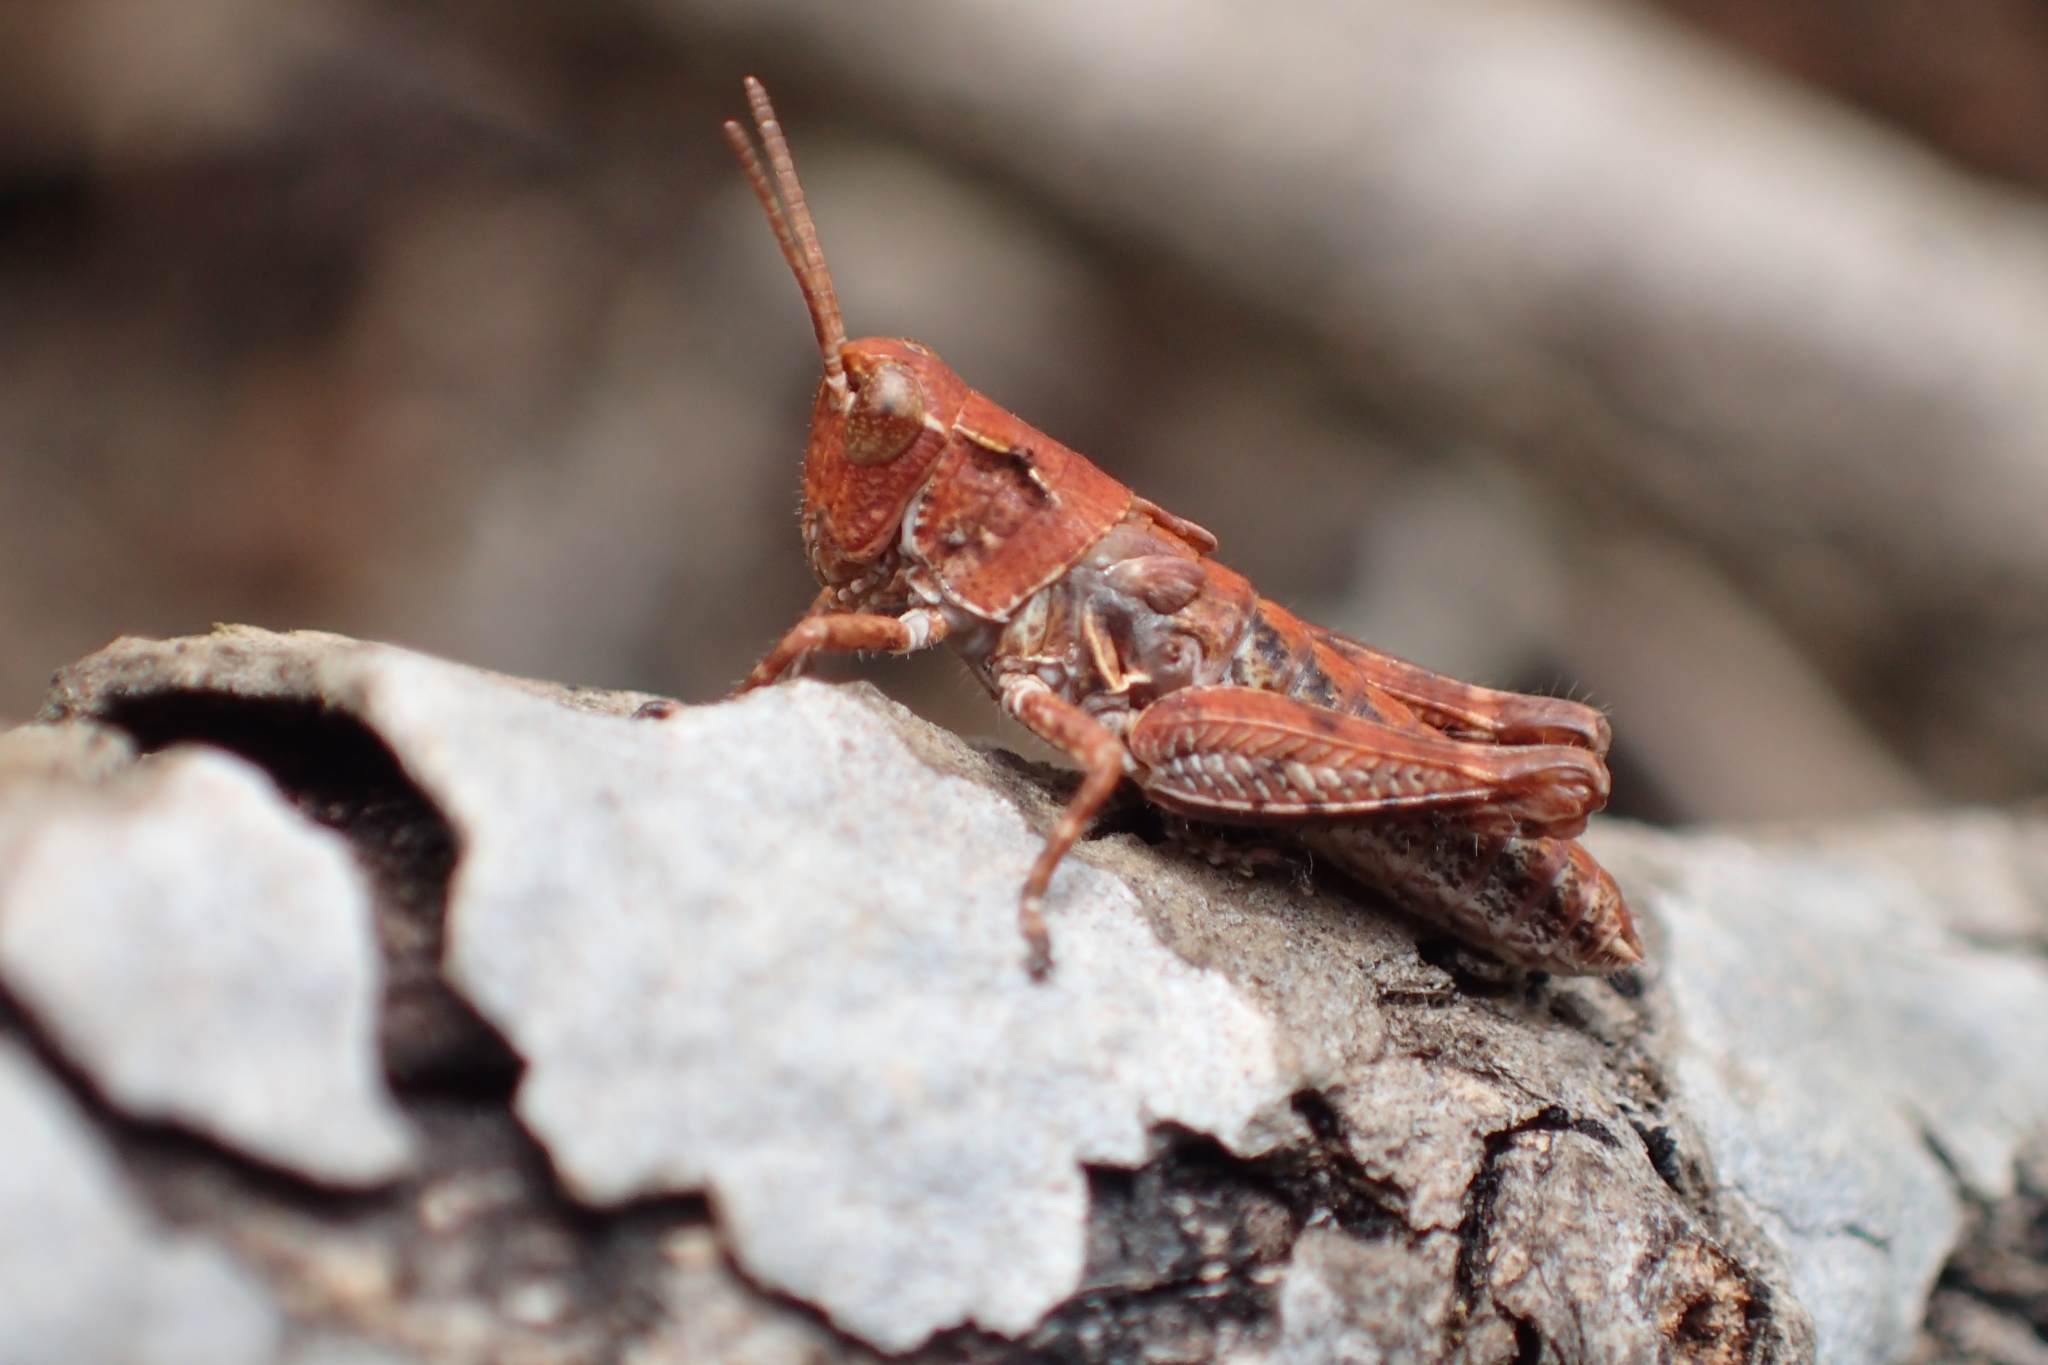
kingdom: Animalia
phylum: Arthropoda
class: Insecta
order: Orthoptera
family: Acrididae
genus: Phaulacridium
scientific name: Phaulacridium marginale
